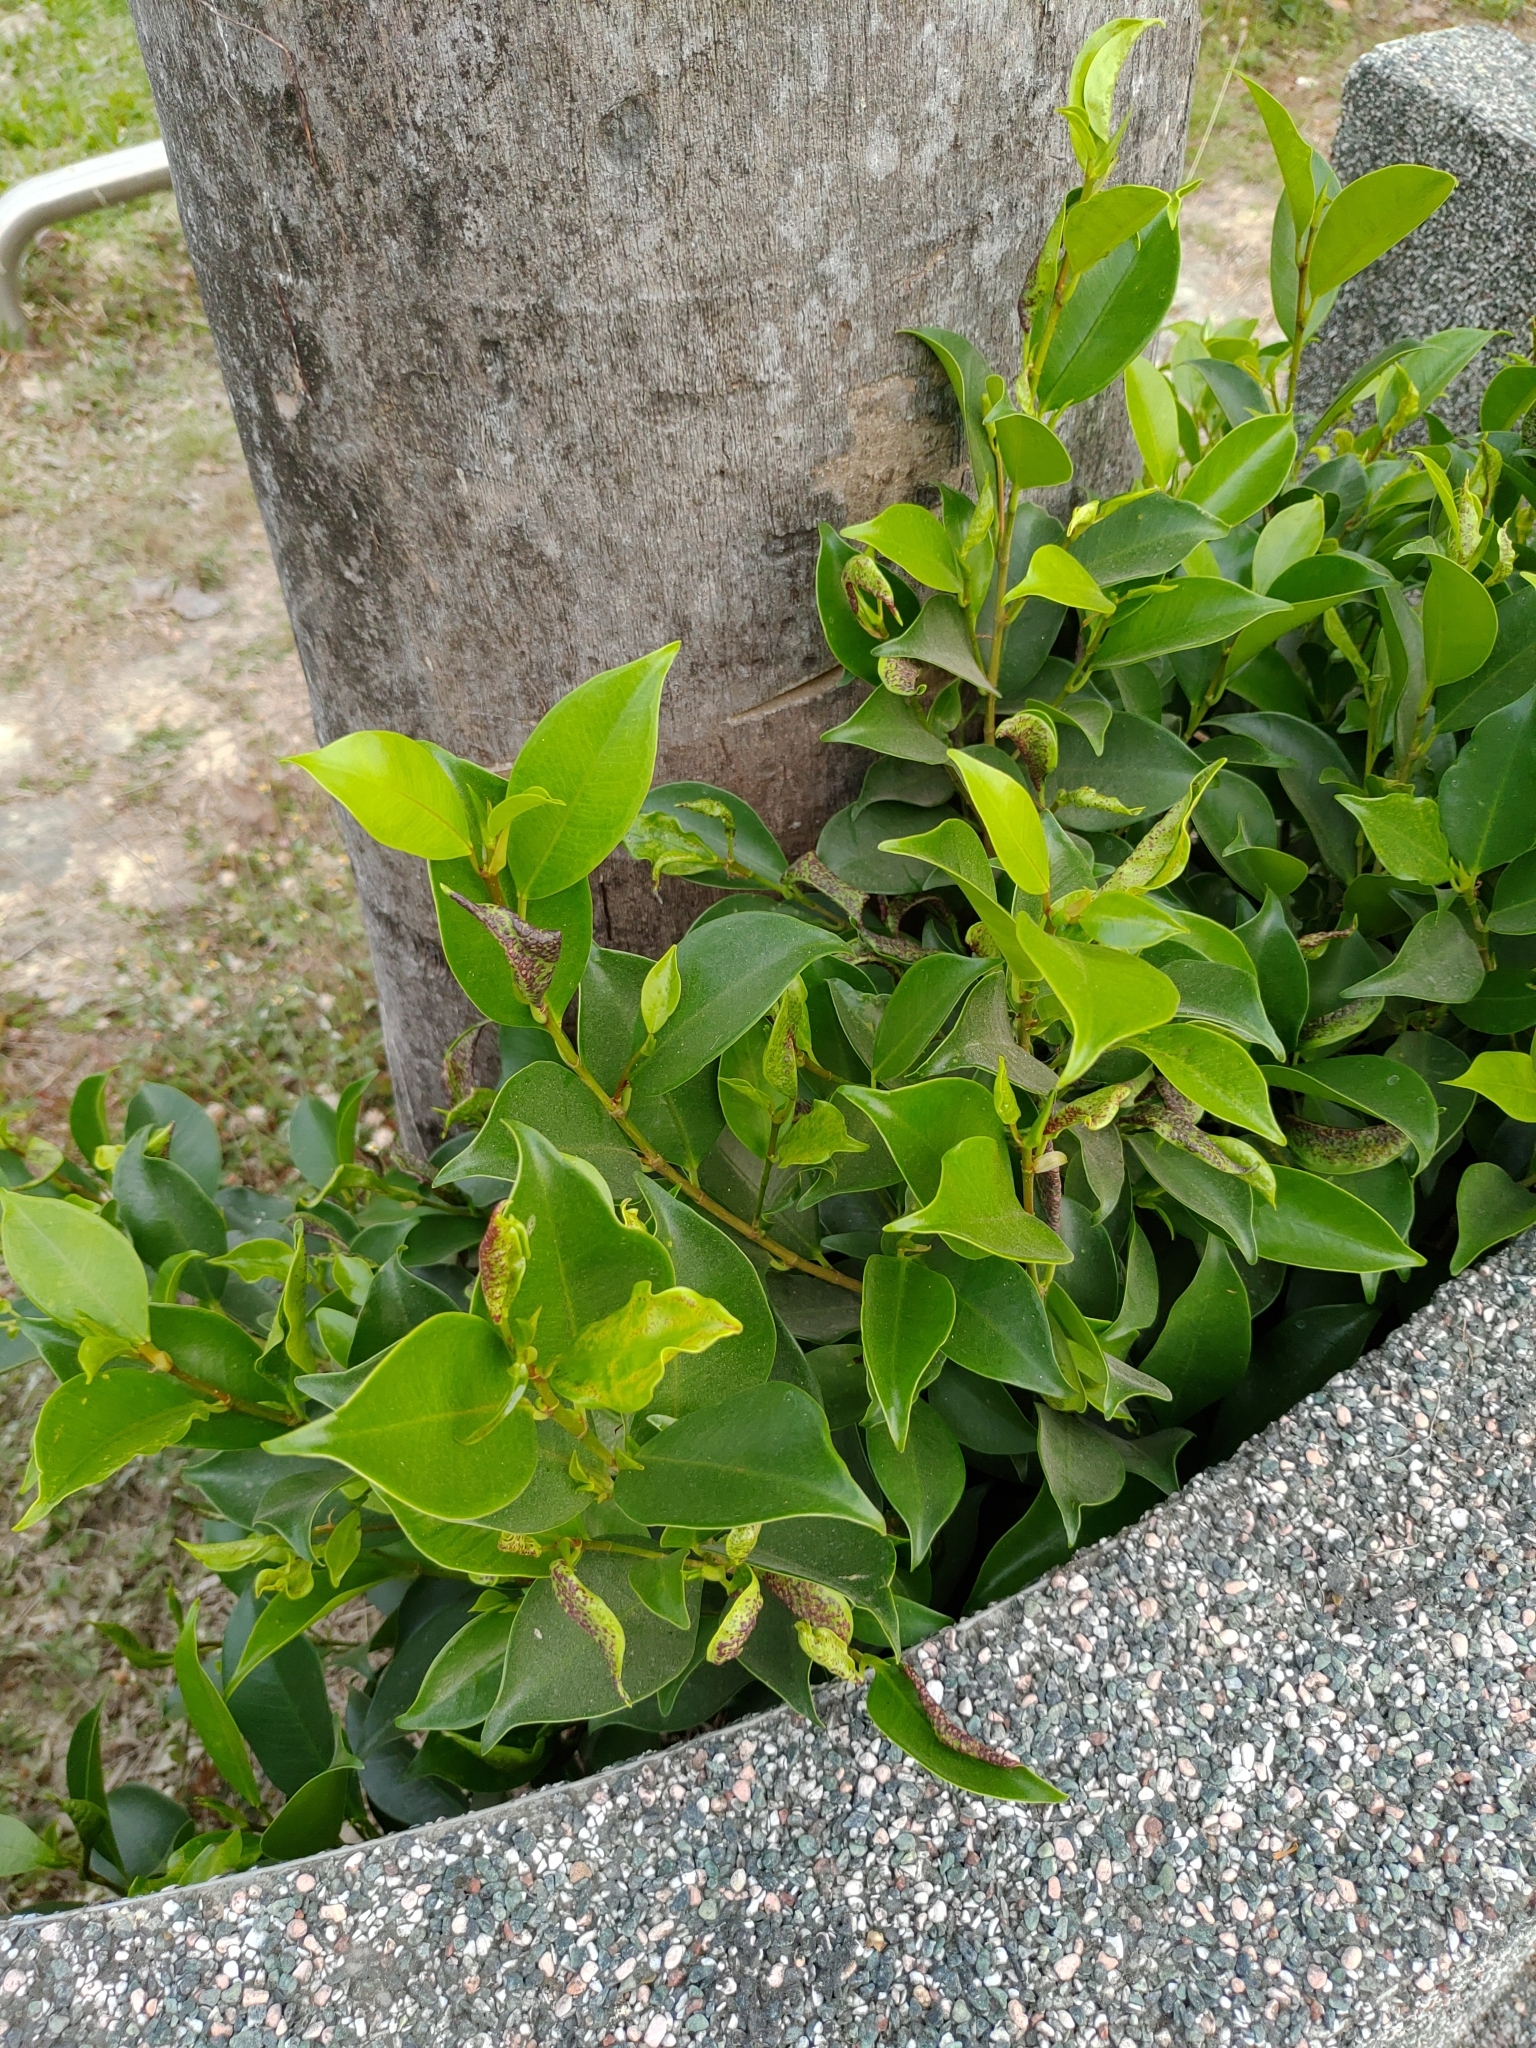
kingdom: Plantae
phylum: Tracheophyta
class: Magnoliopsida
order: Rosales
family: Moraceae
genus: Ficus
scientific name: Ficus microcarpa
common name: Chinese banyan
